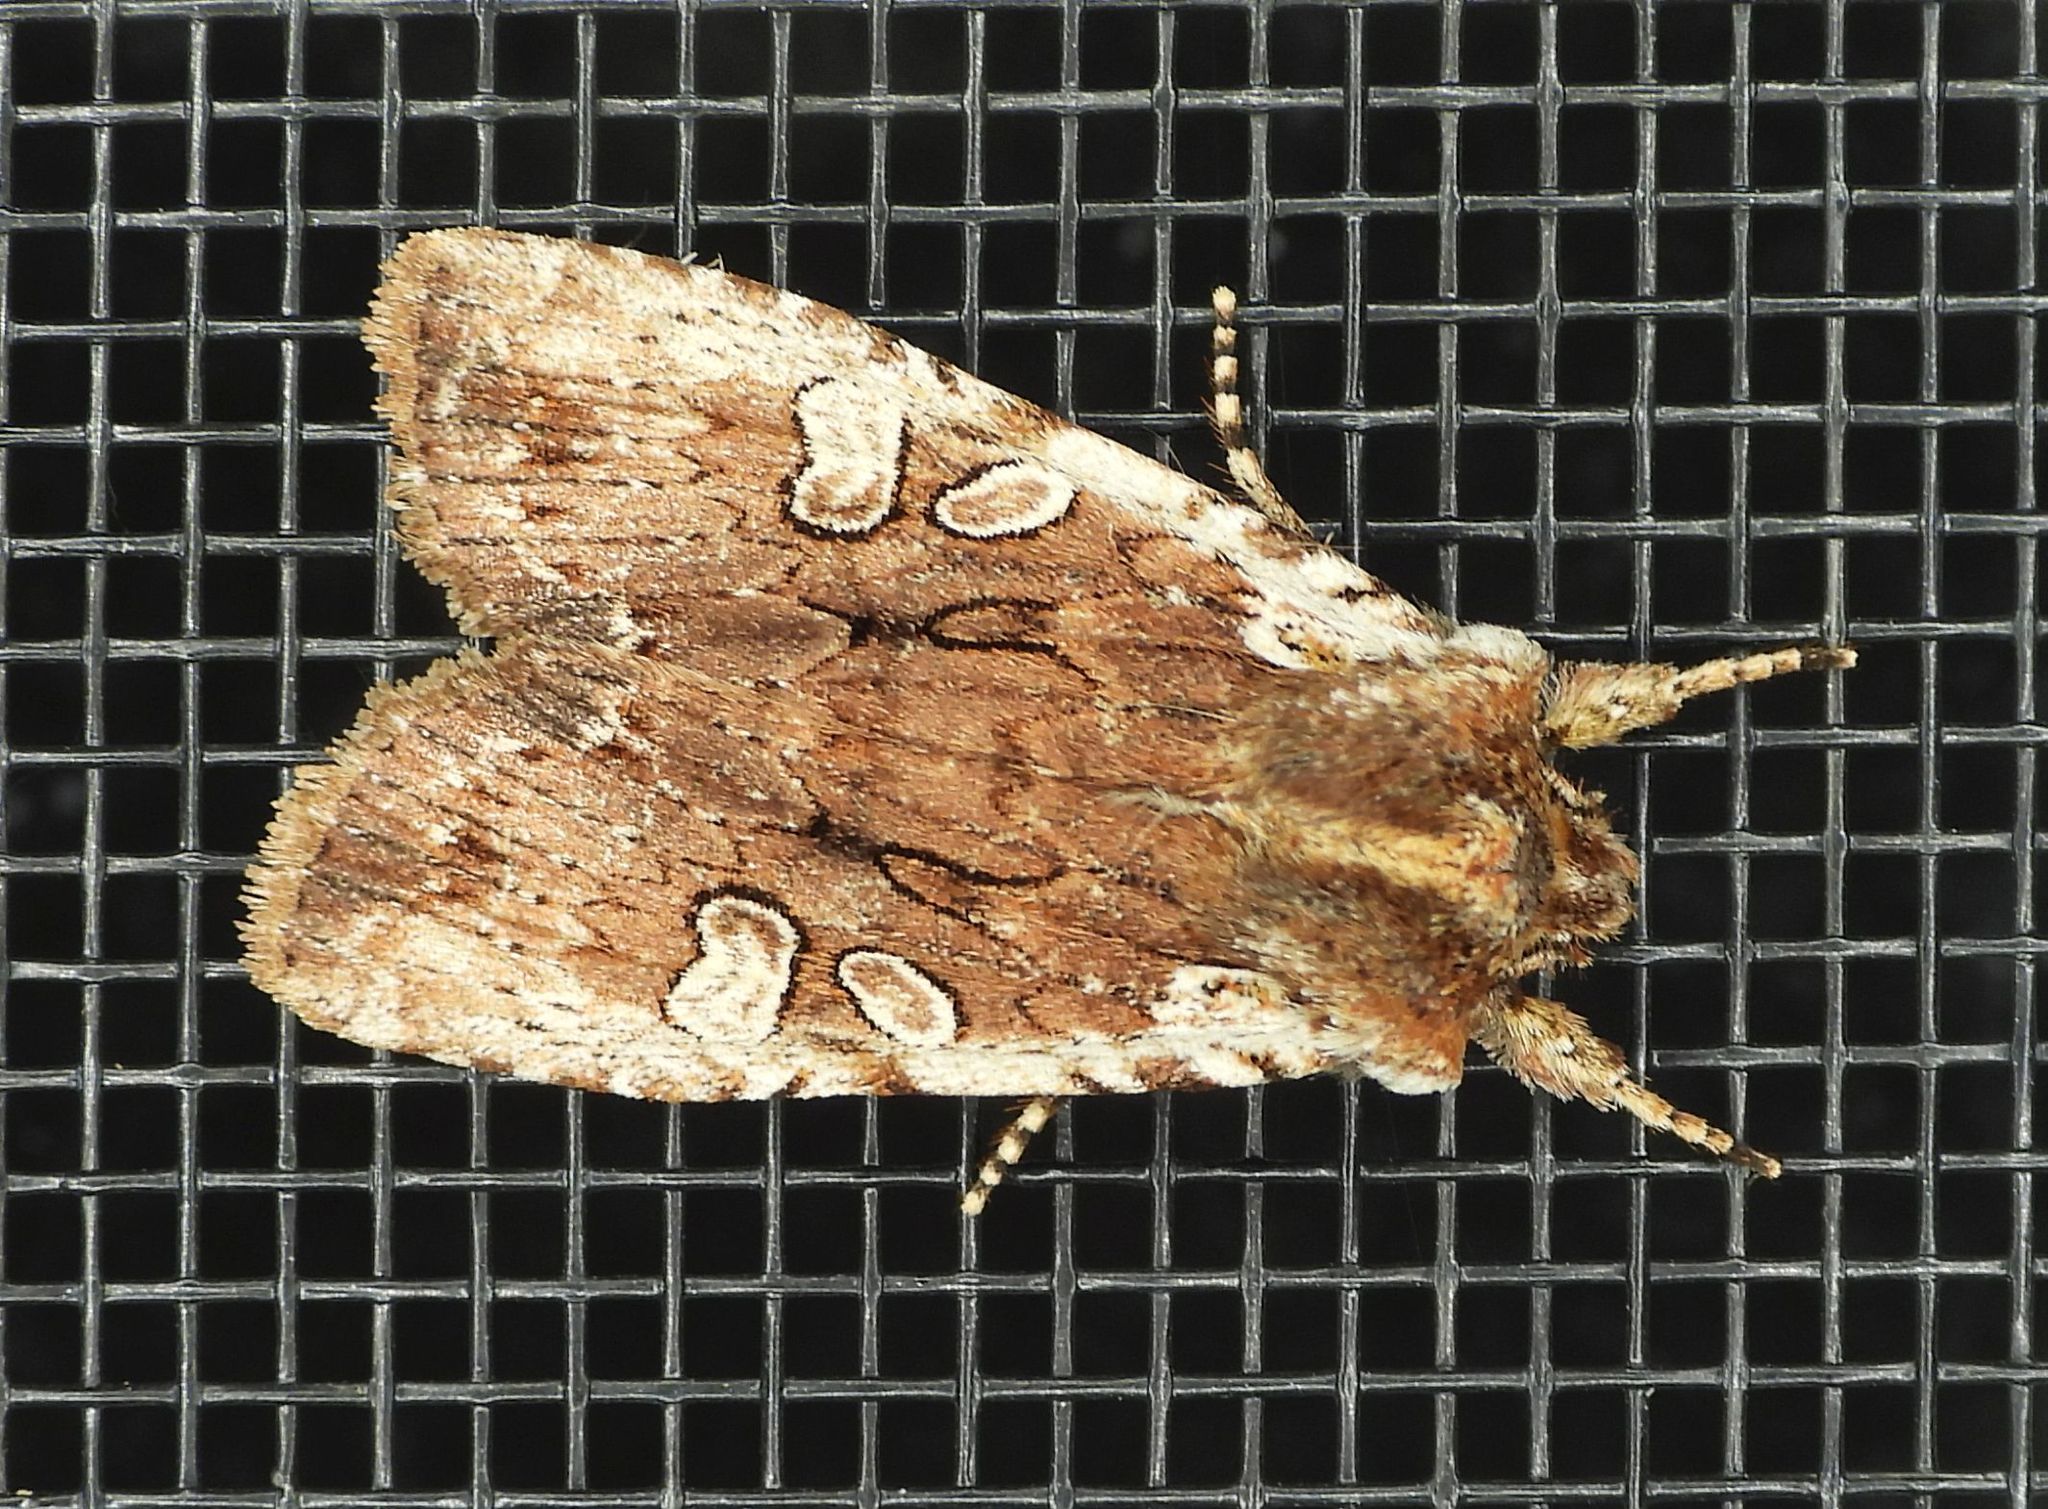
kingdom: Animalia
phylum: Arthropoda
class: Insecta
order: Lepidoptera
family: Noctuidae
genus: Lithophane
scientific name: Lithophane oriunda
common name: Immigrant pinion moth
